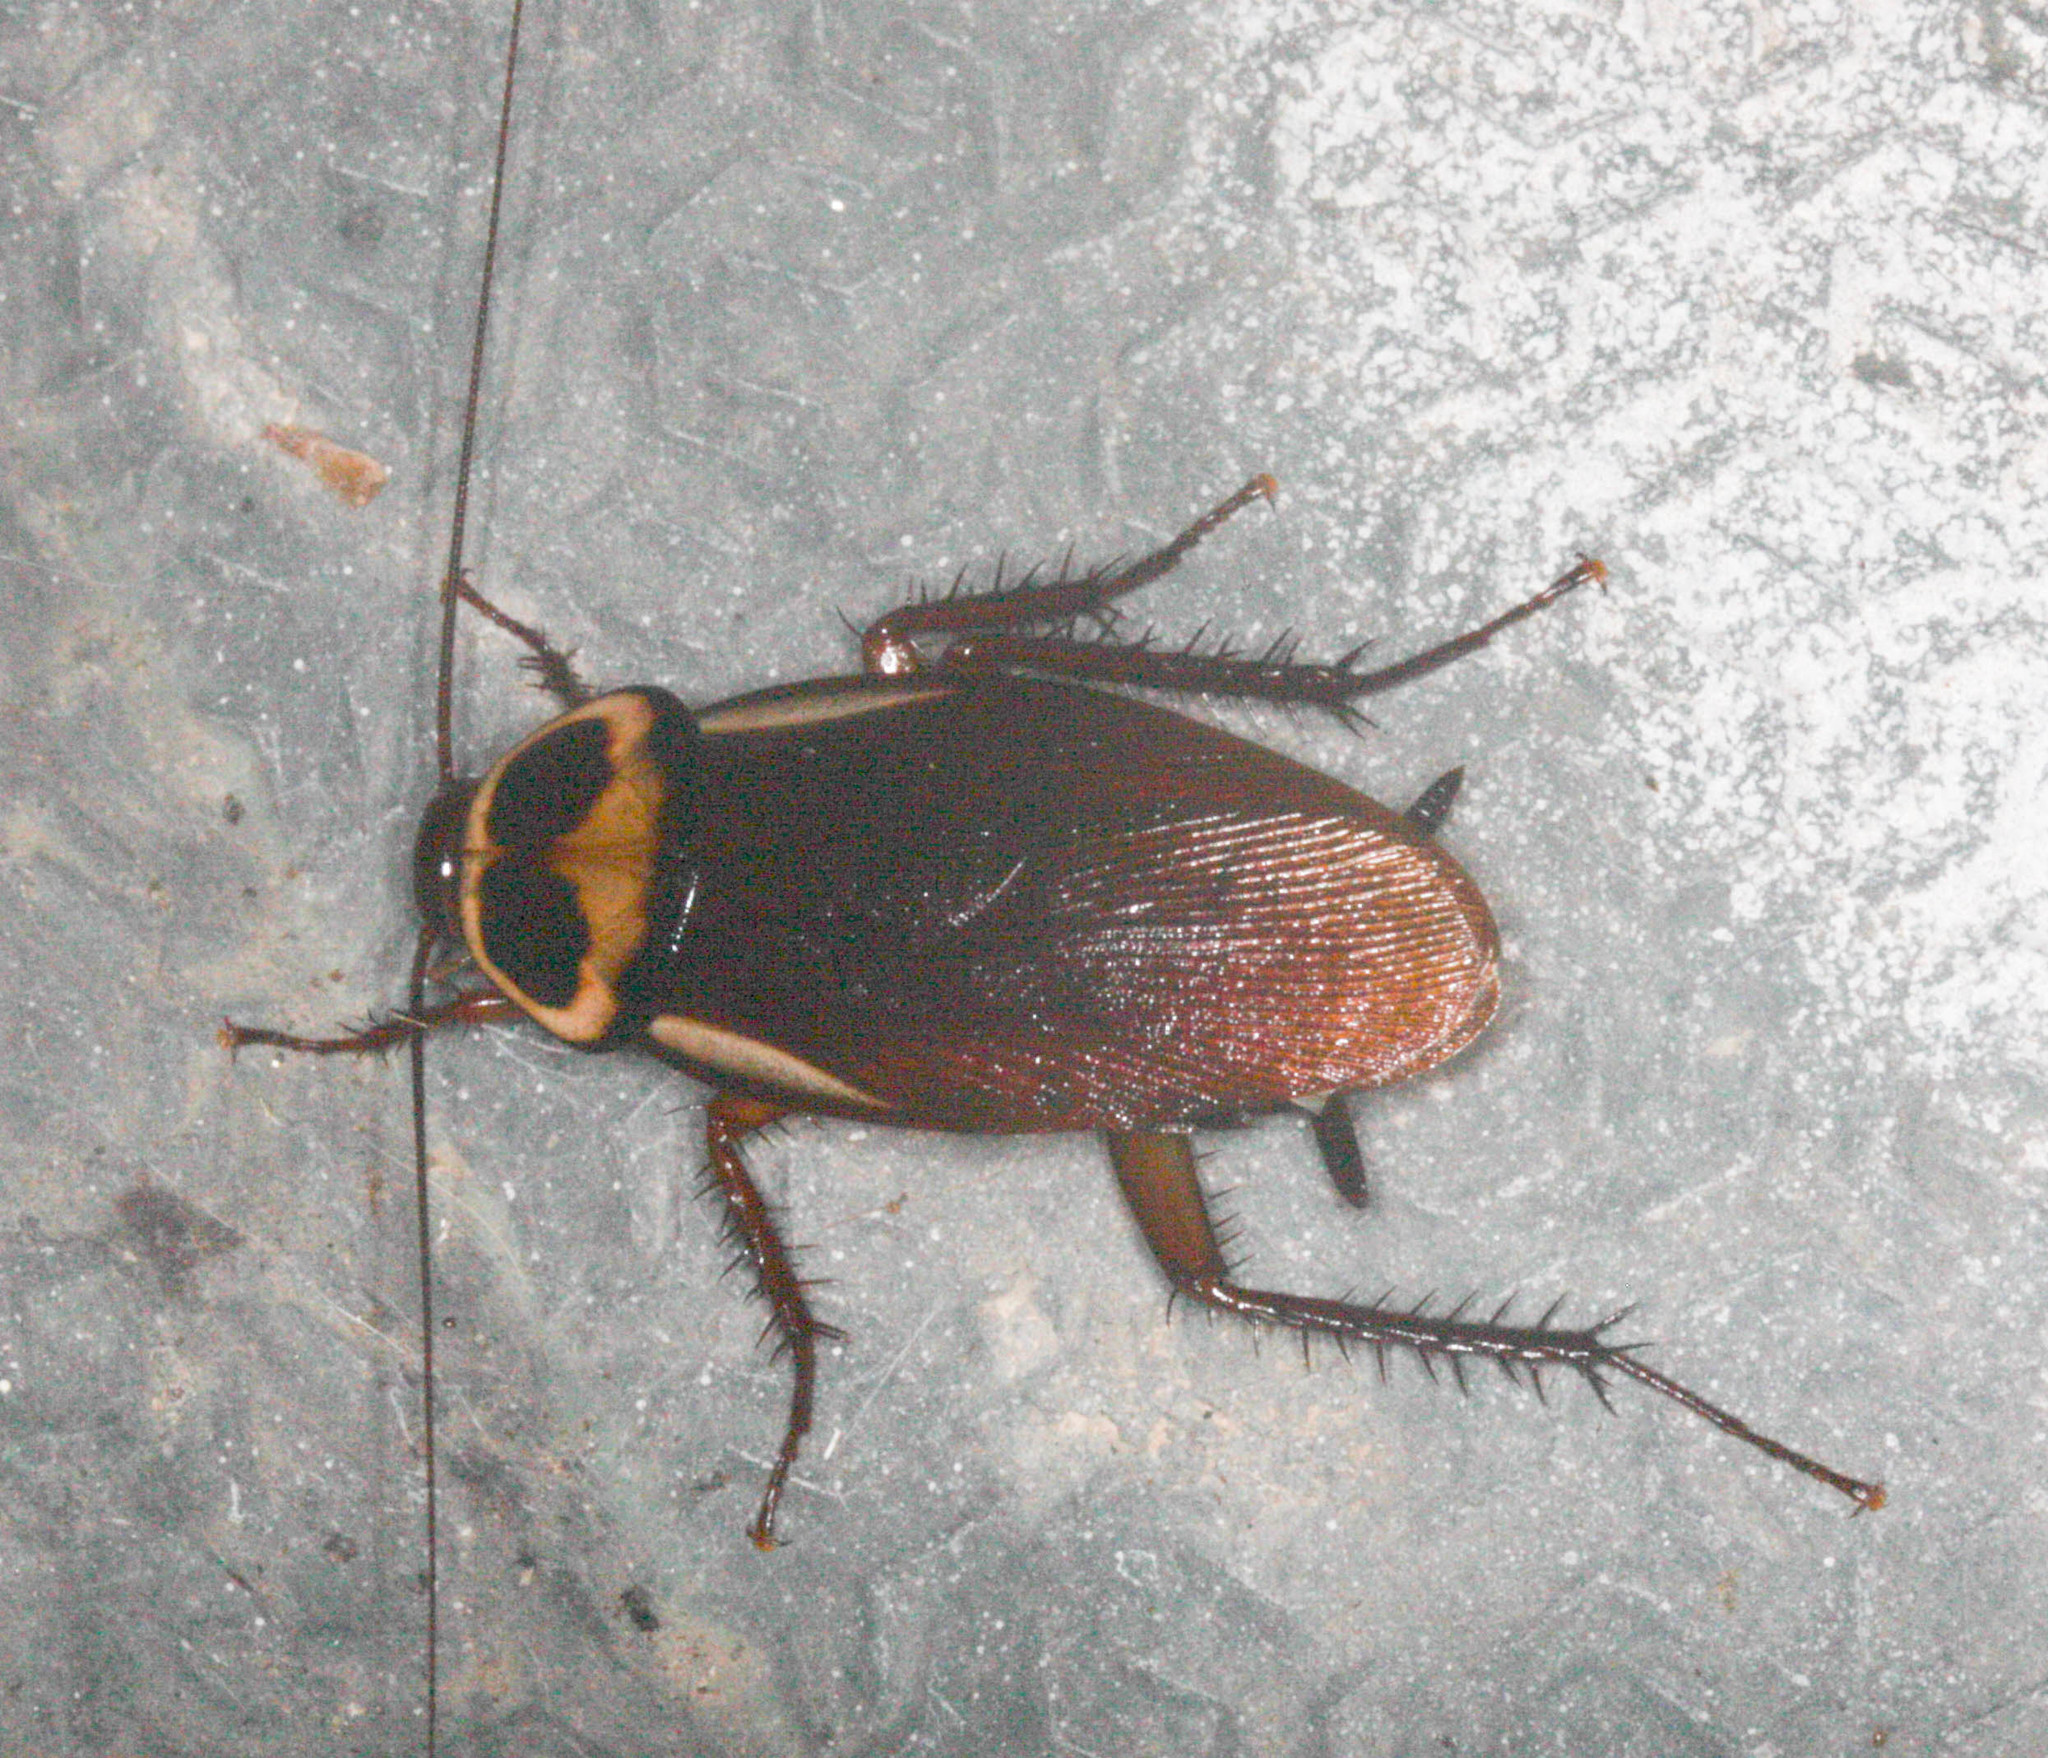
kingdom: Animalia
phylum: Arthropoda
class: Insecta
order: Blattodea
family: Blattidae
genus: Periplaneta
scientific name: Periplaneta australasiae
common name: Australian cockroach
